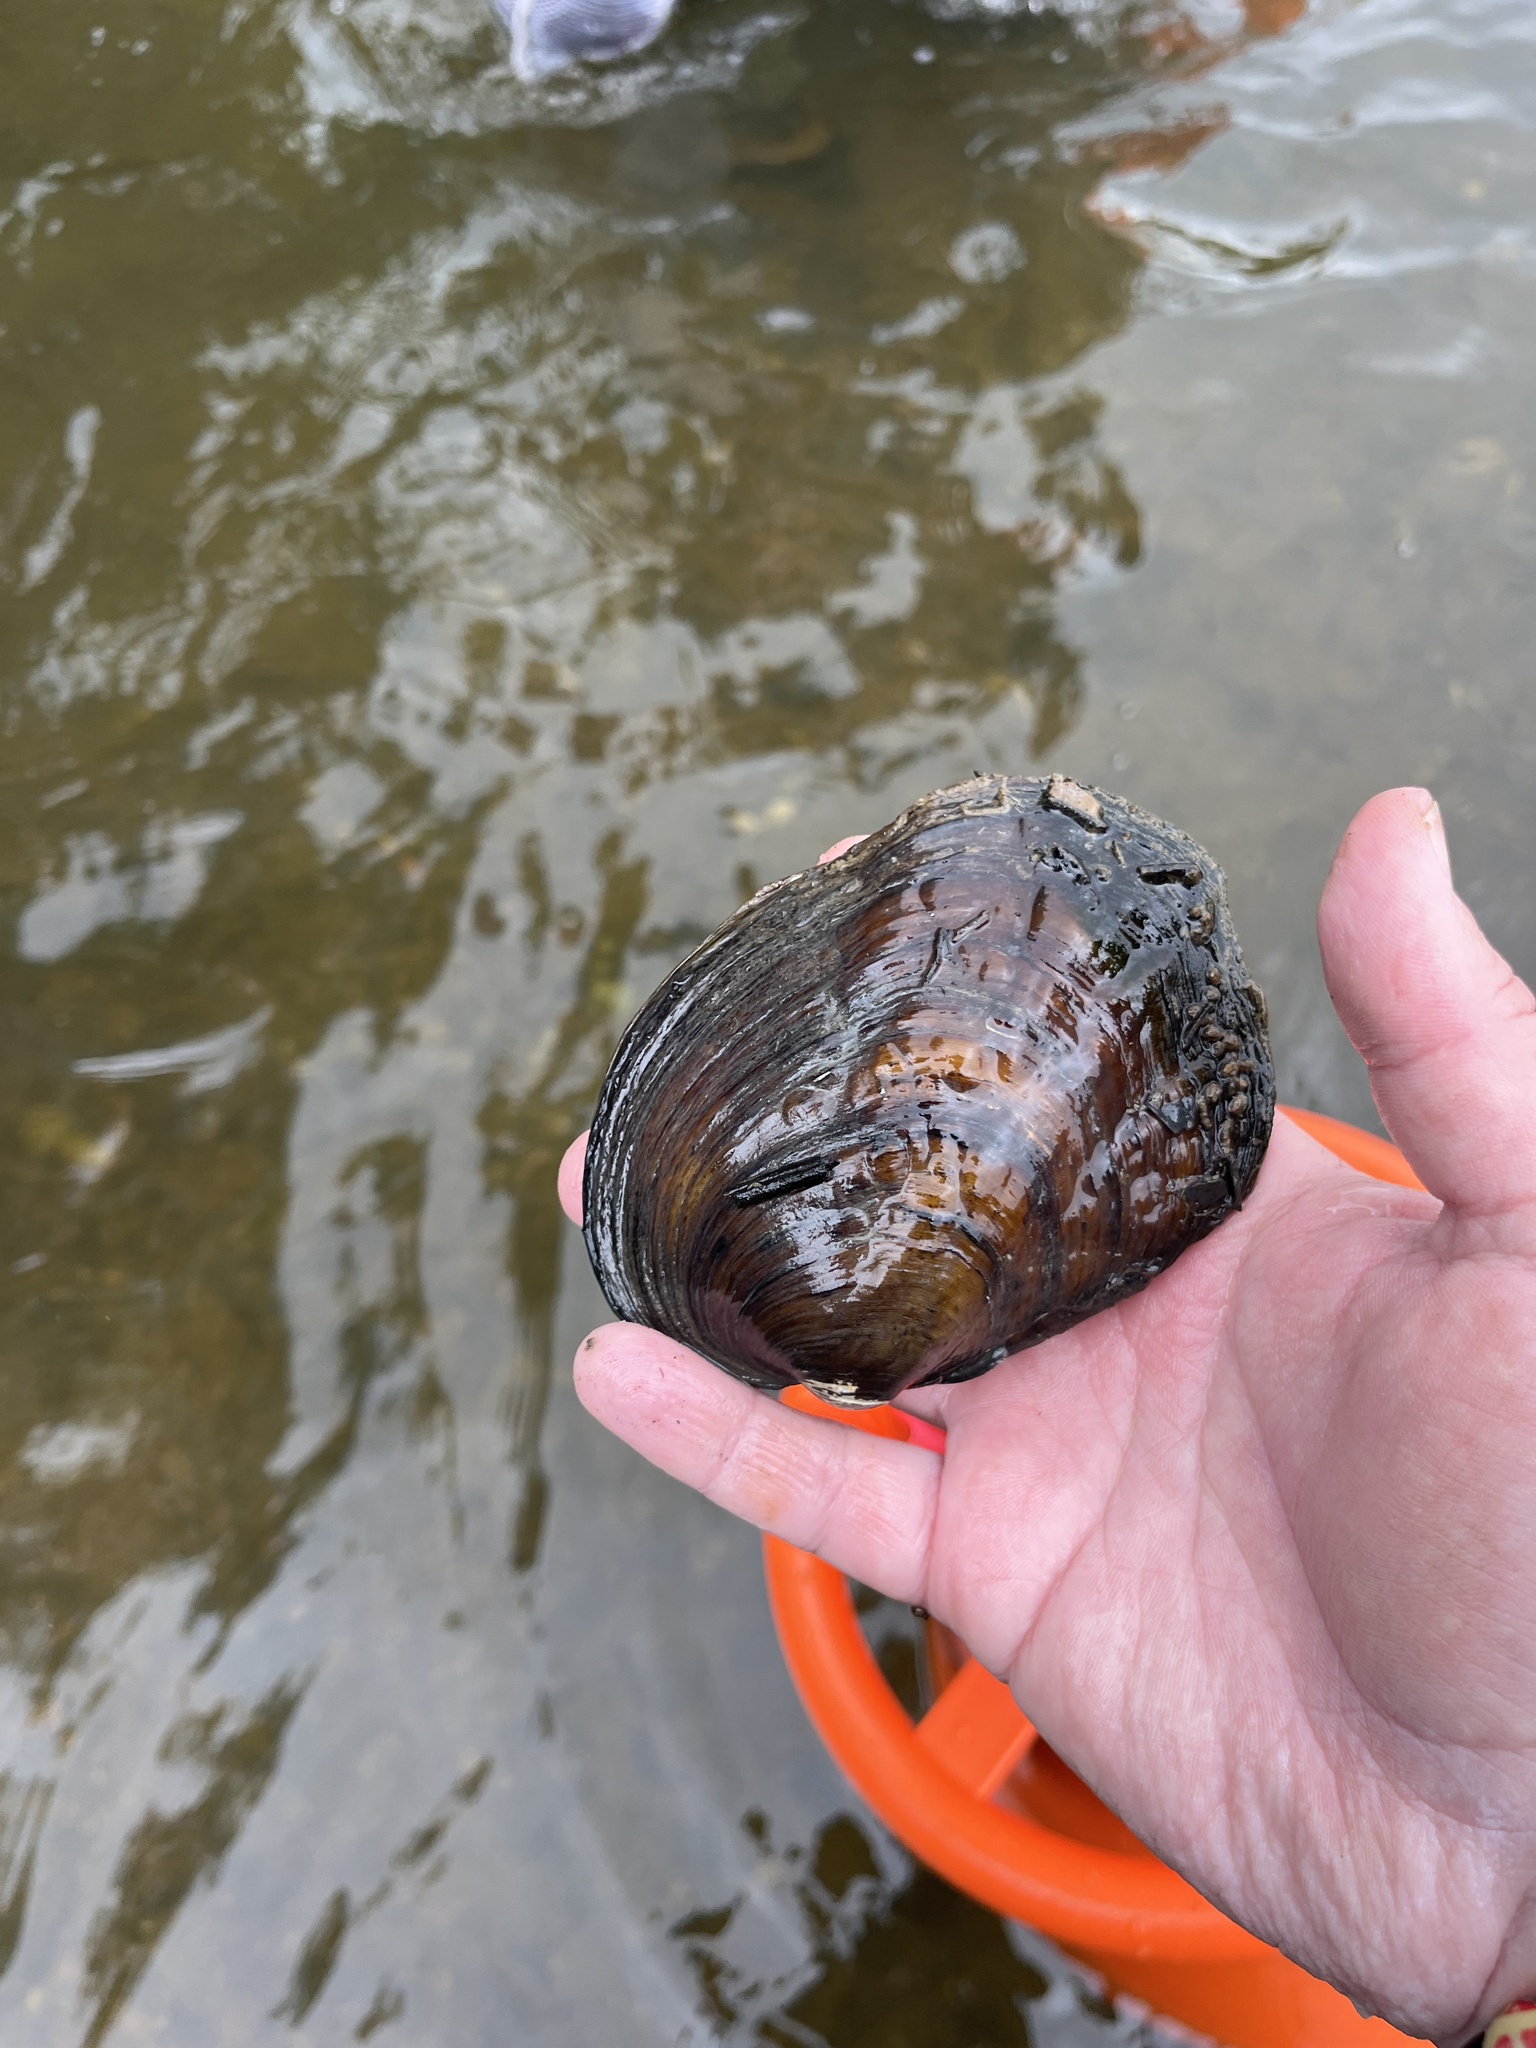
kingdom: Animalia
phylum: Mollusca
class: Bivalvia
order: Unionida
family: Unionidae
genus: Amblema
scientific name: Amblema plicata
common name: Threeridge
